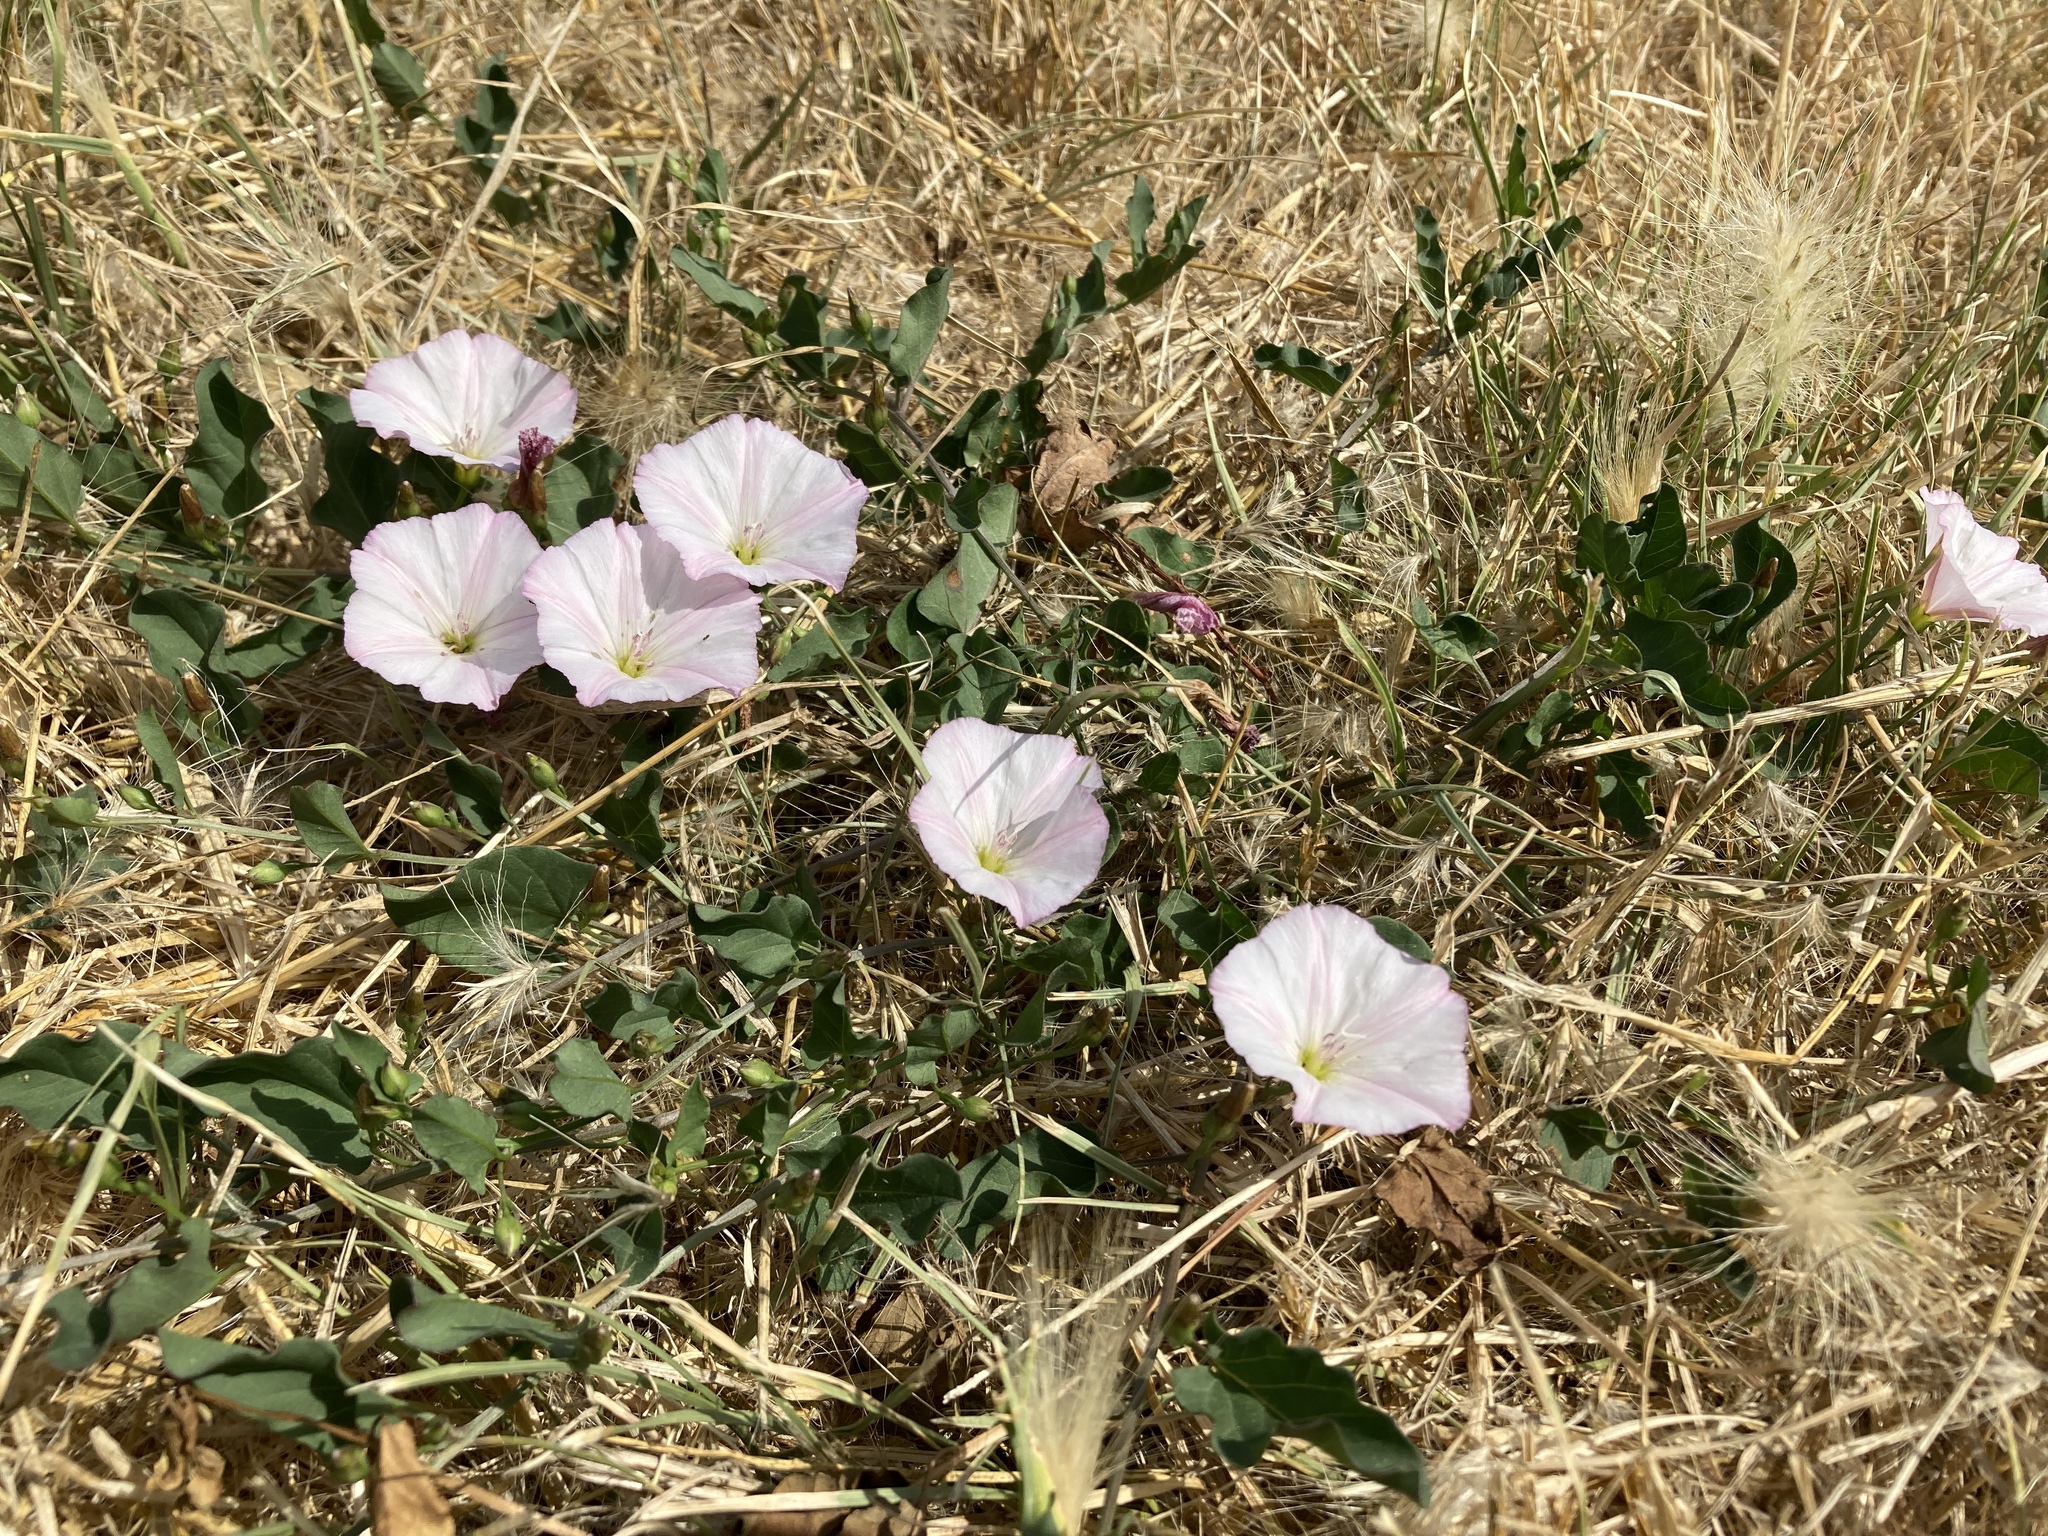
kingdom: Plantae
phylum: Tracheophyta
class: Magnoliopsida
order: Solanales
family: Convolvulaceae
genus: Convolvulus
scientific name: Convolvulus arvensis
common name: Field bindweed
